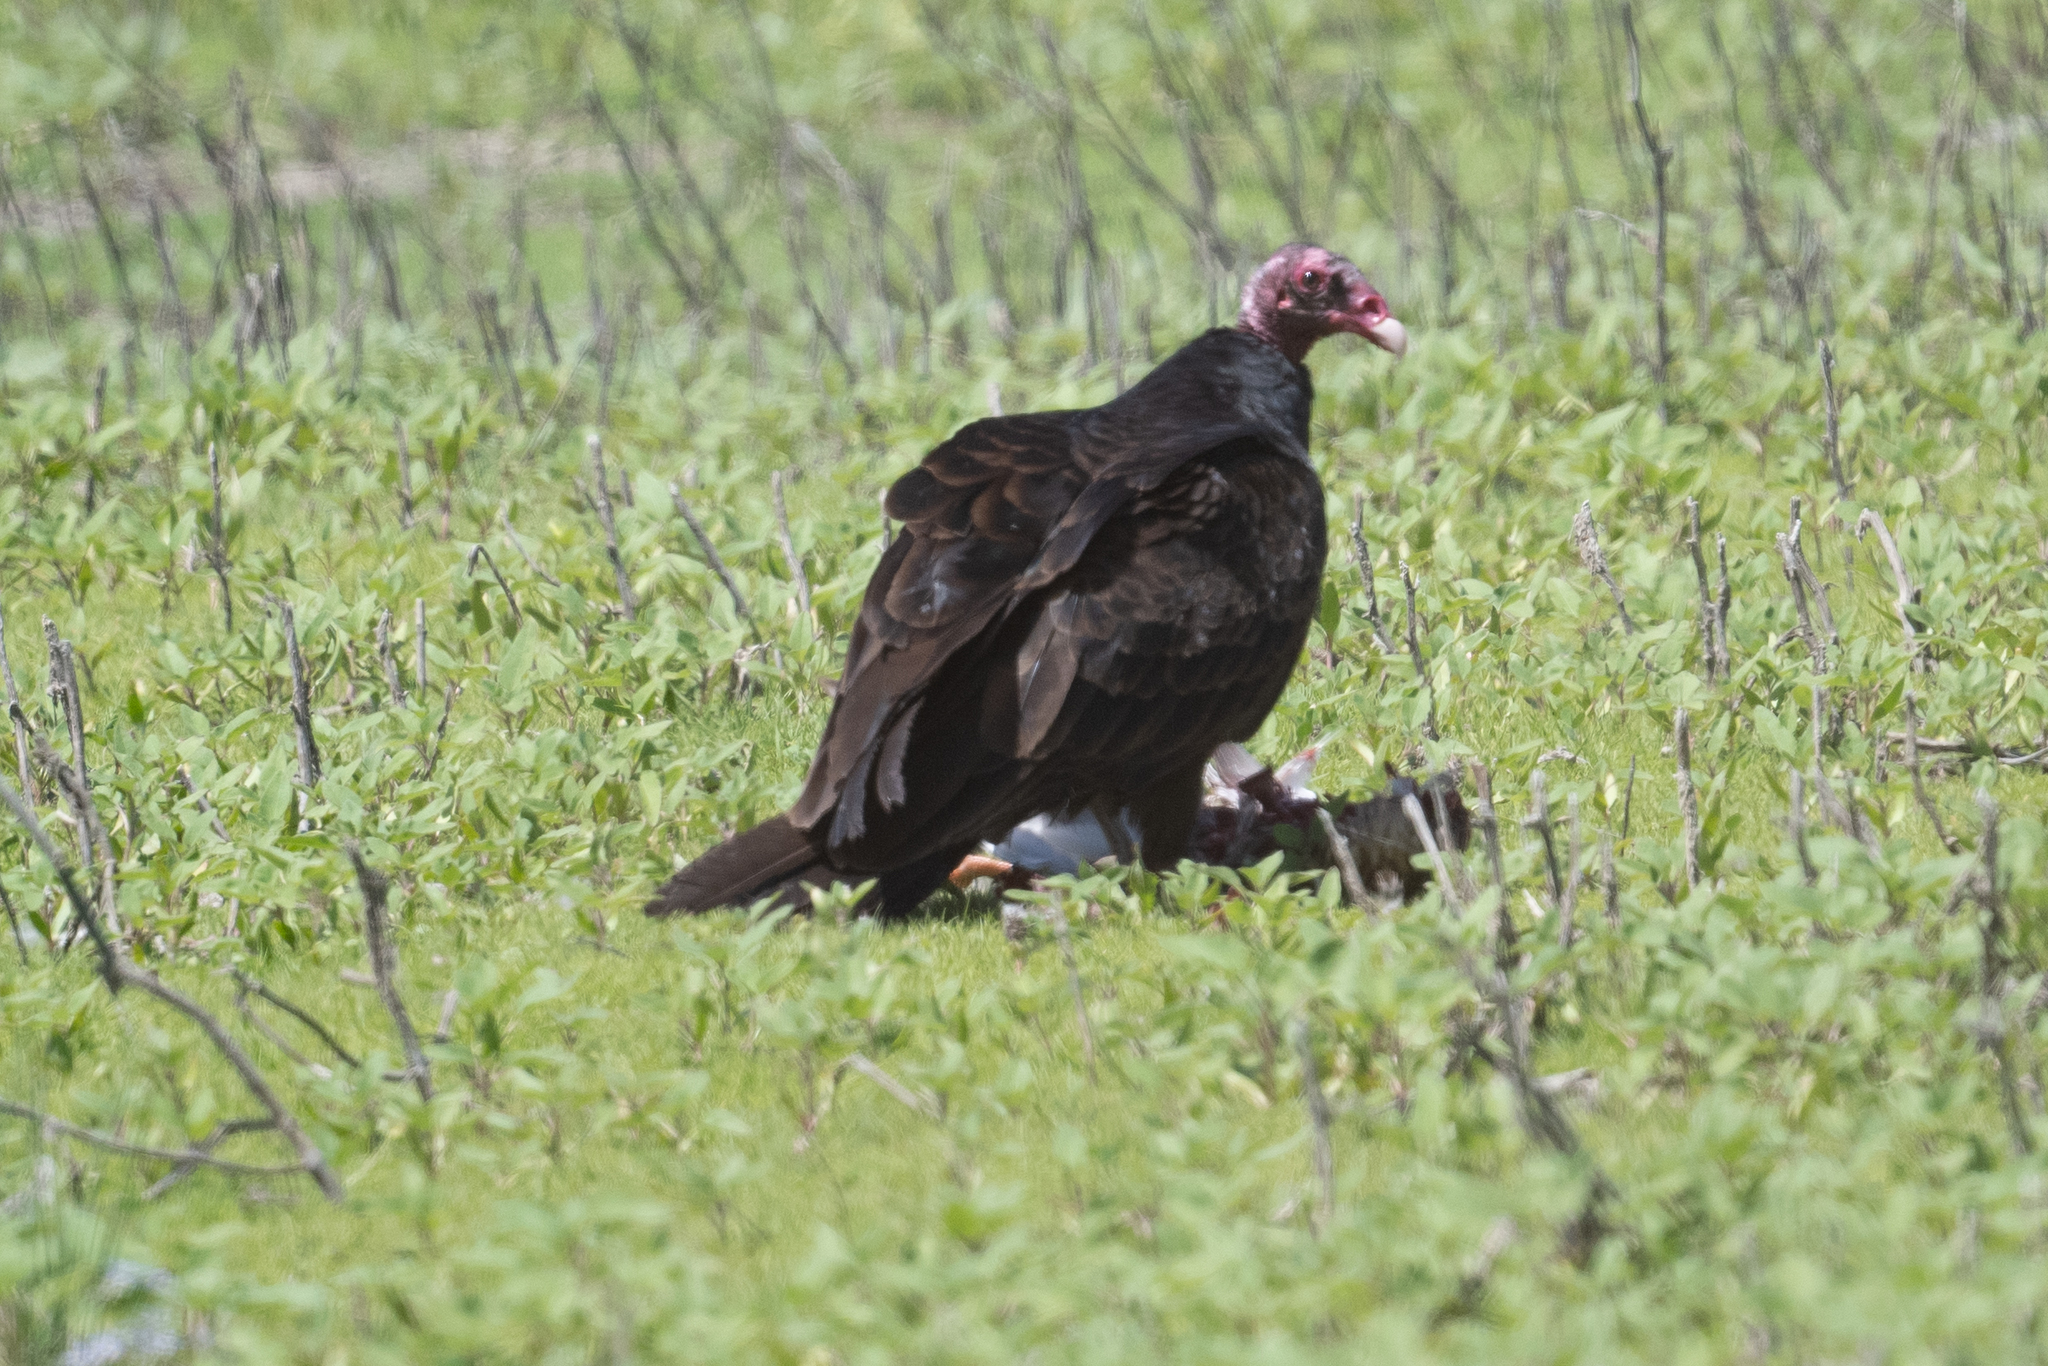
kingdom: Animalia
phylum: Chordata
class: Aves
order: Accipitriformes
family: Cathartidae
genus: Cathartes
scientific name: Cathartes aura
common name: Turkey vulture
